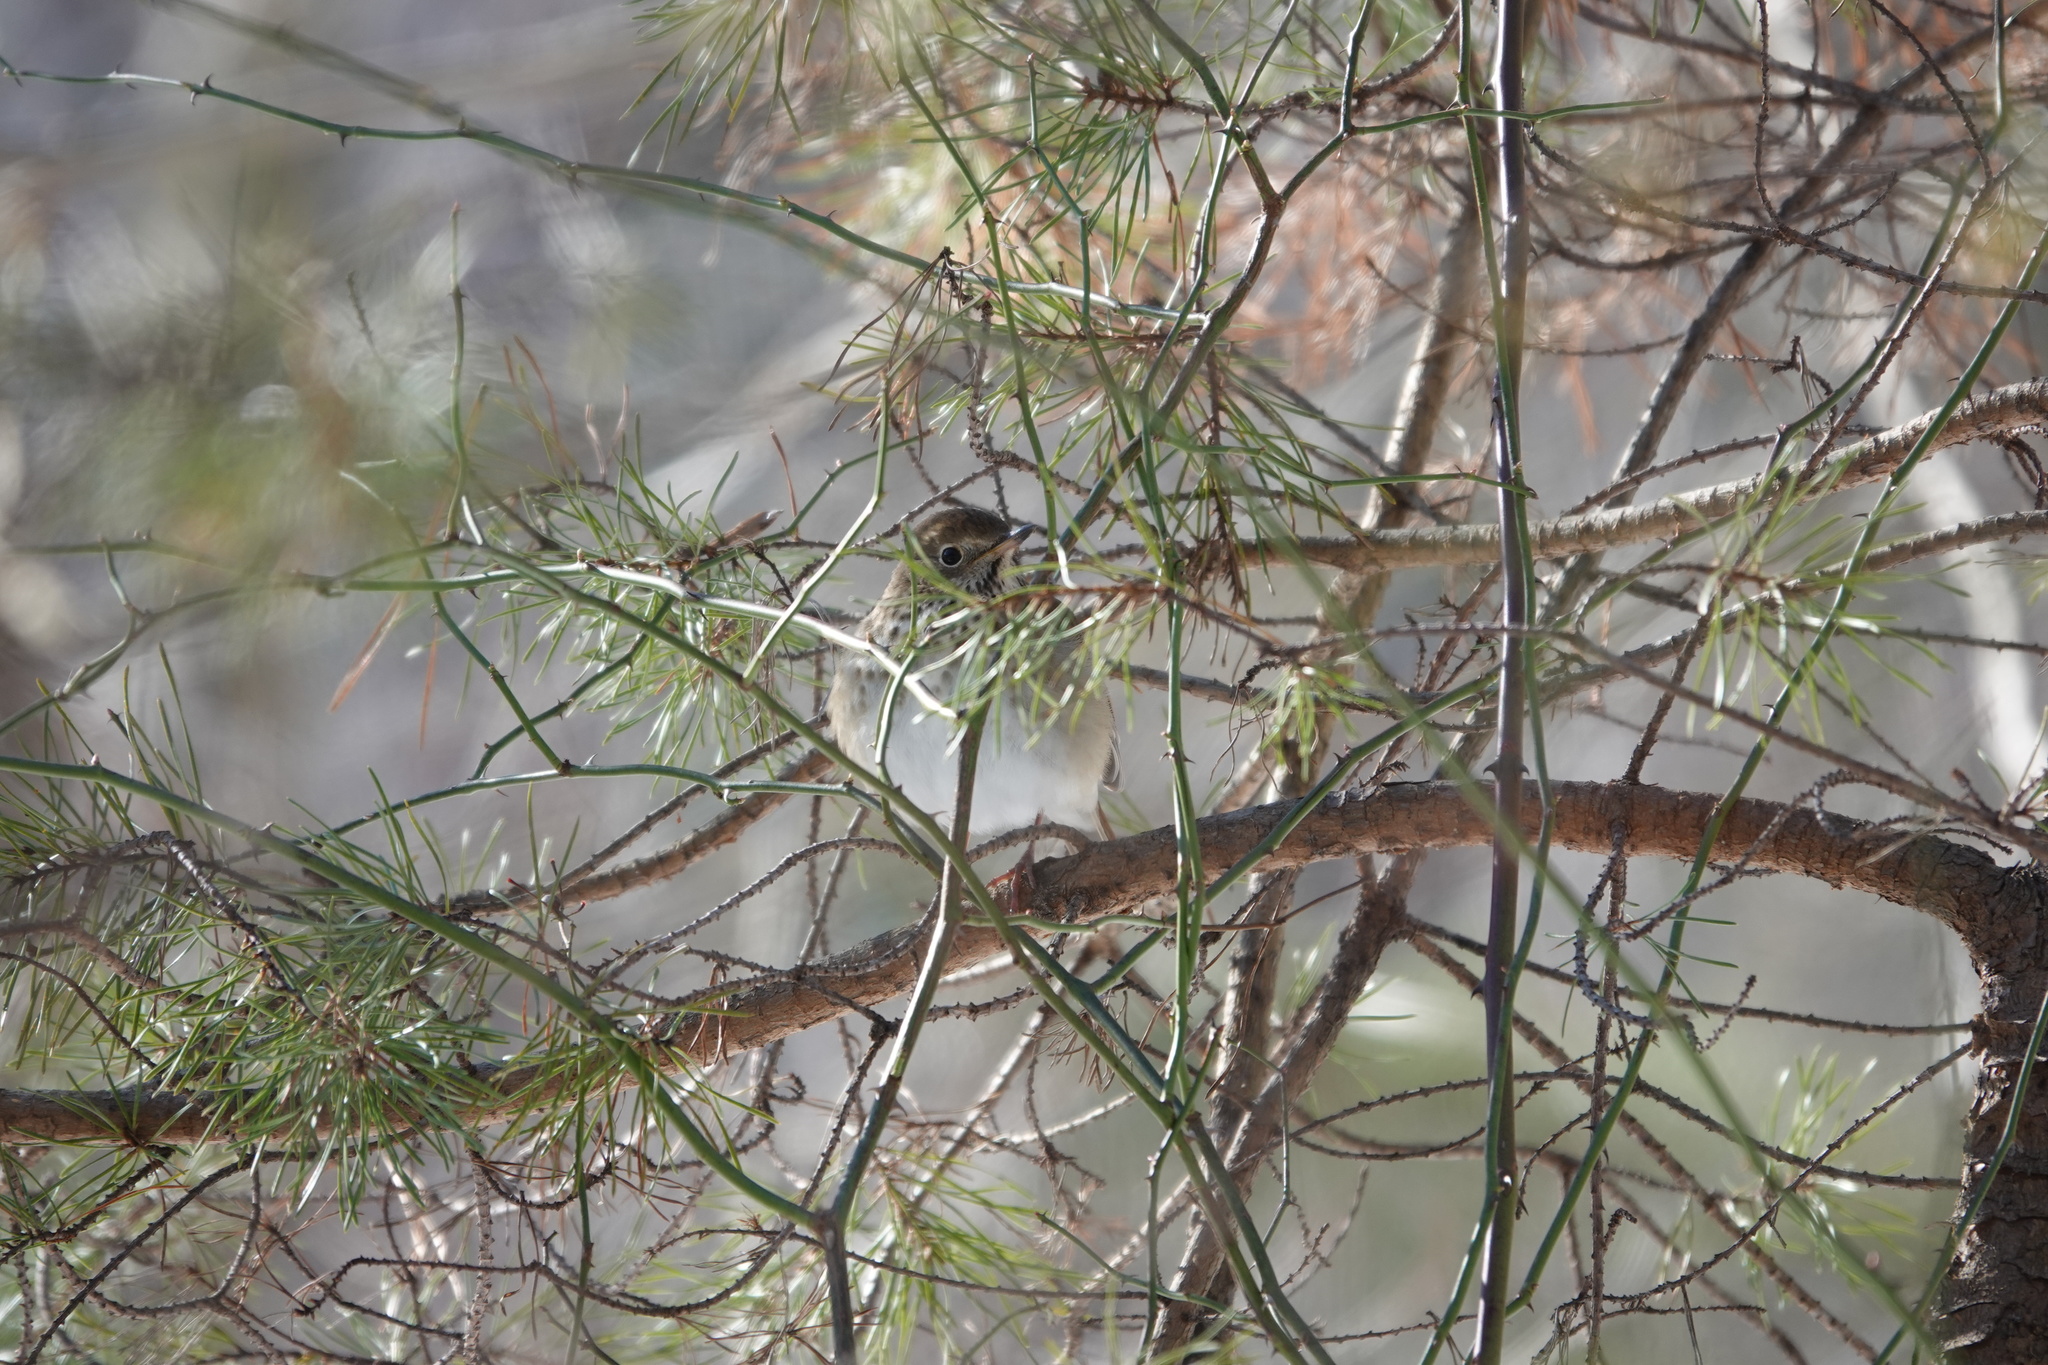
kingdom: Animalia
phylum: Chordata
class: Aves
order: Passeriformes
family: Turdidae
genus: Catharus
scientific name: Catharus guttatus
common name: Hermit thrush
